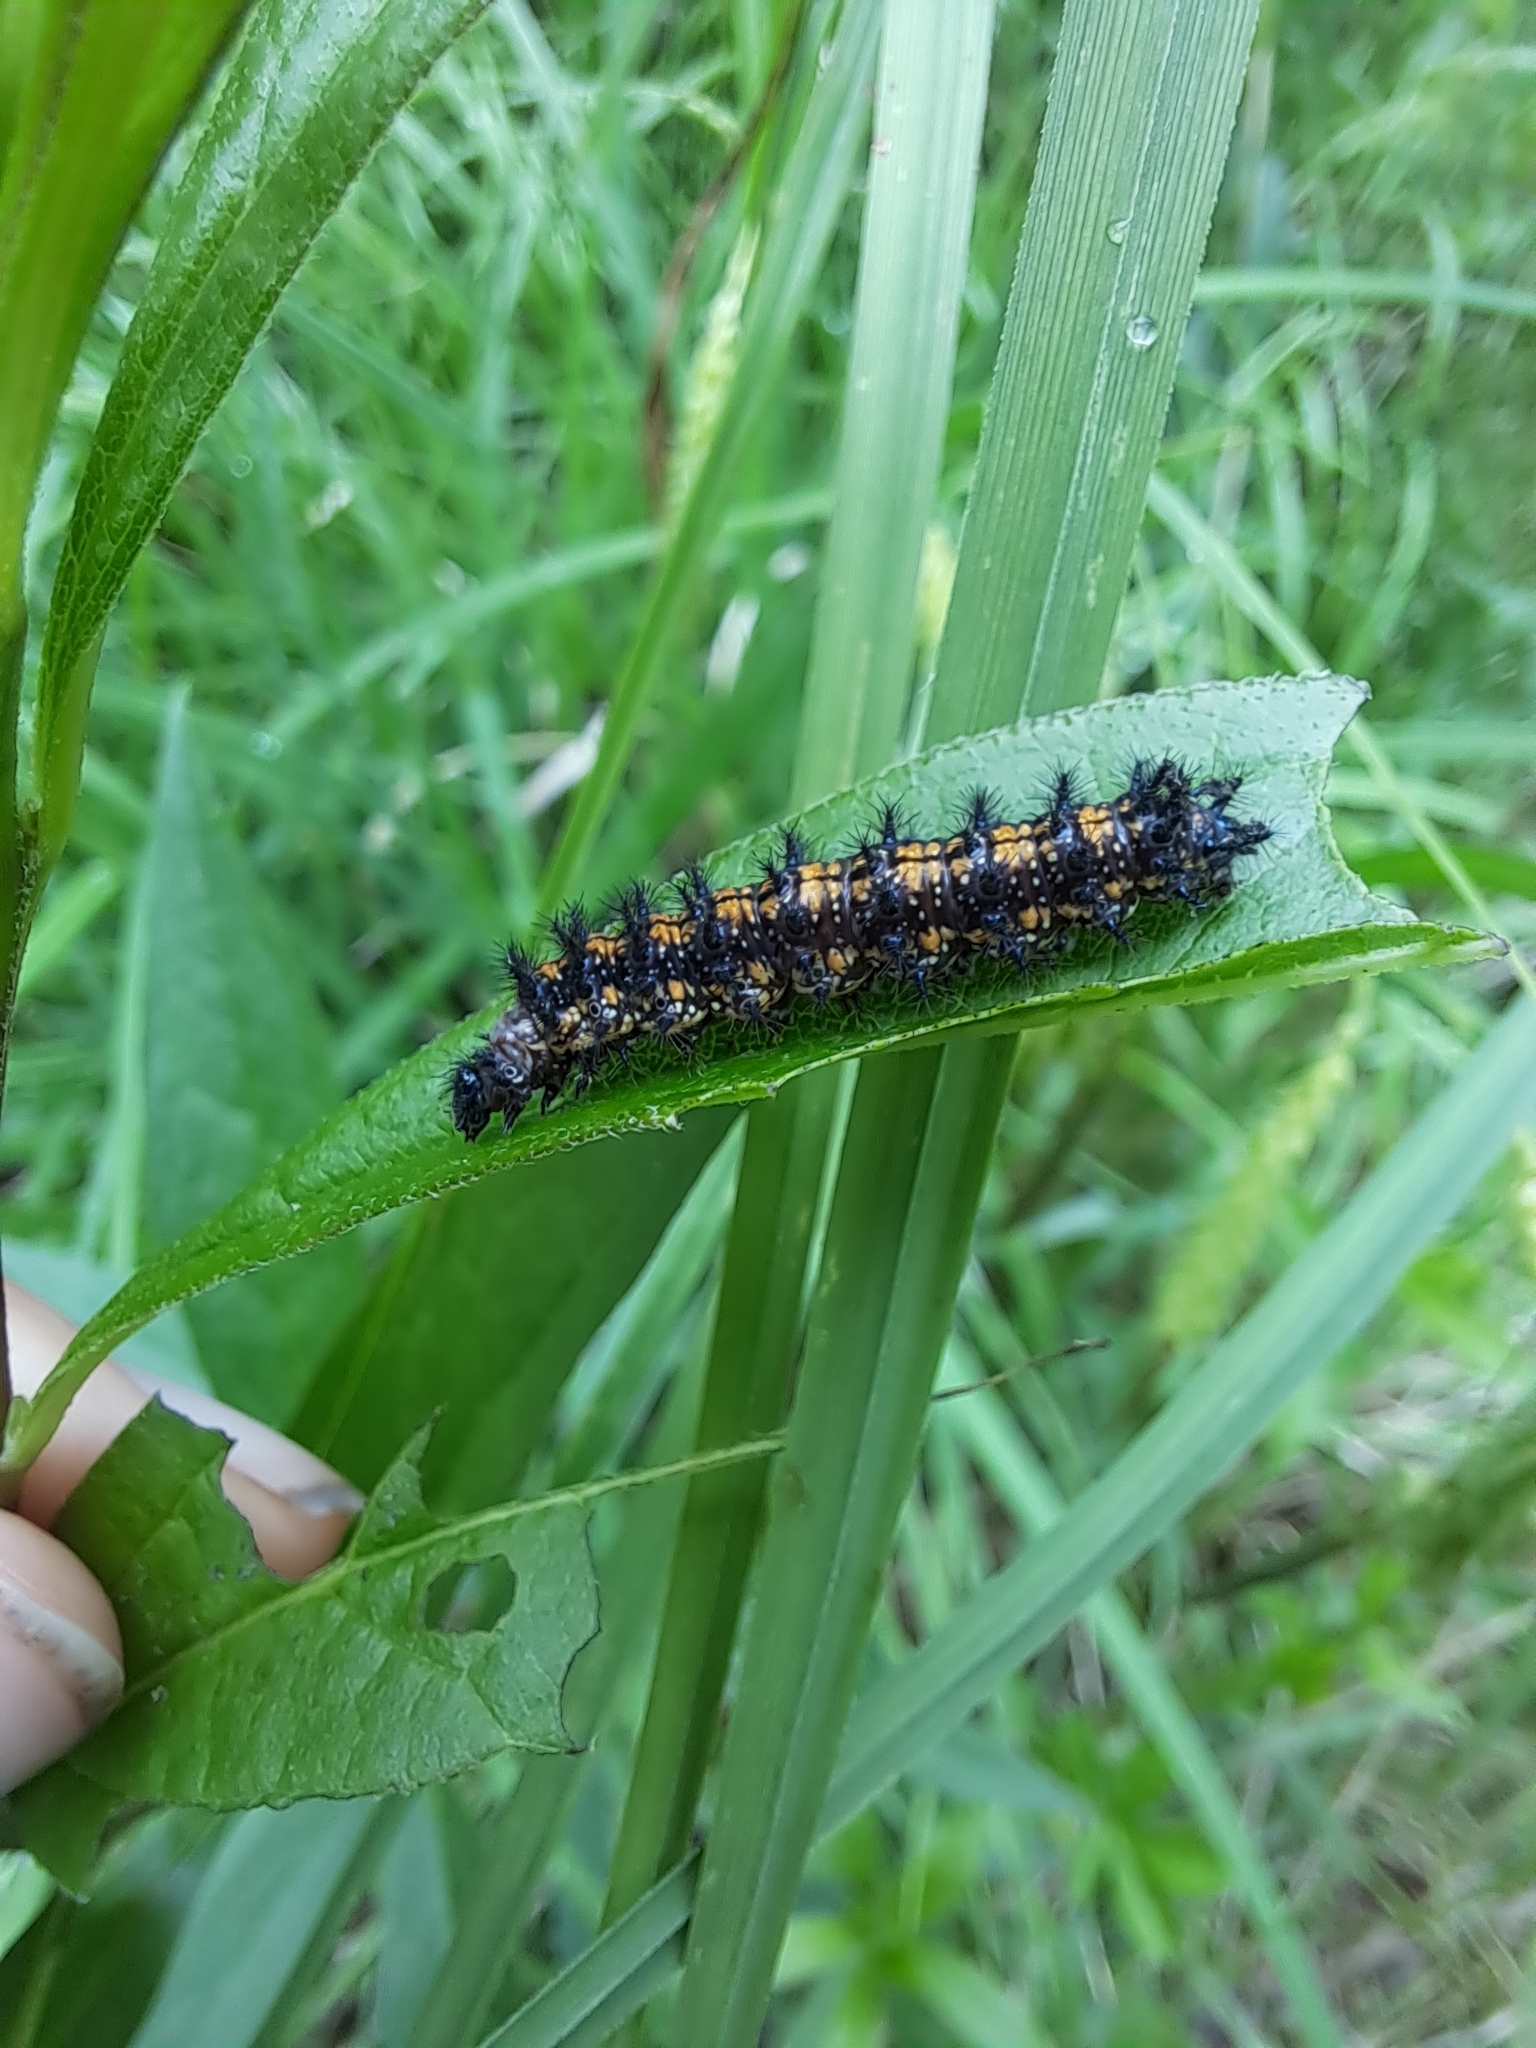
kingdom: Animalia
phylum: Arthropoda
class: Insecta
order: Lepidoptera
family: Nymphalidae
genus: Chlosyne
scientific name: Chlosyne harrisii
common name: Harris's checkerspot
